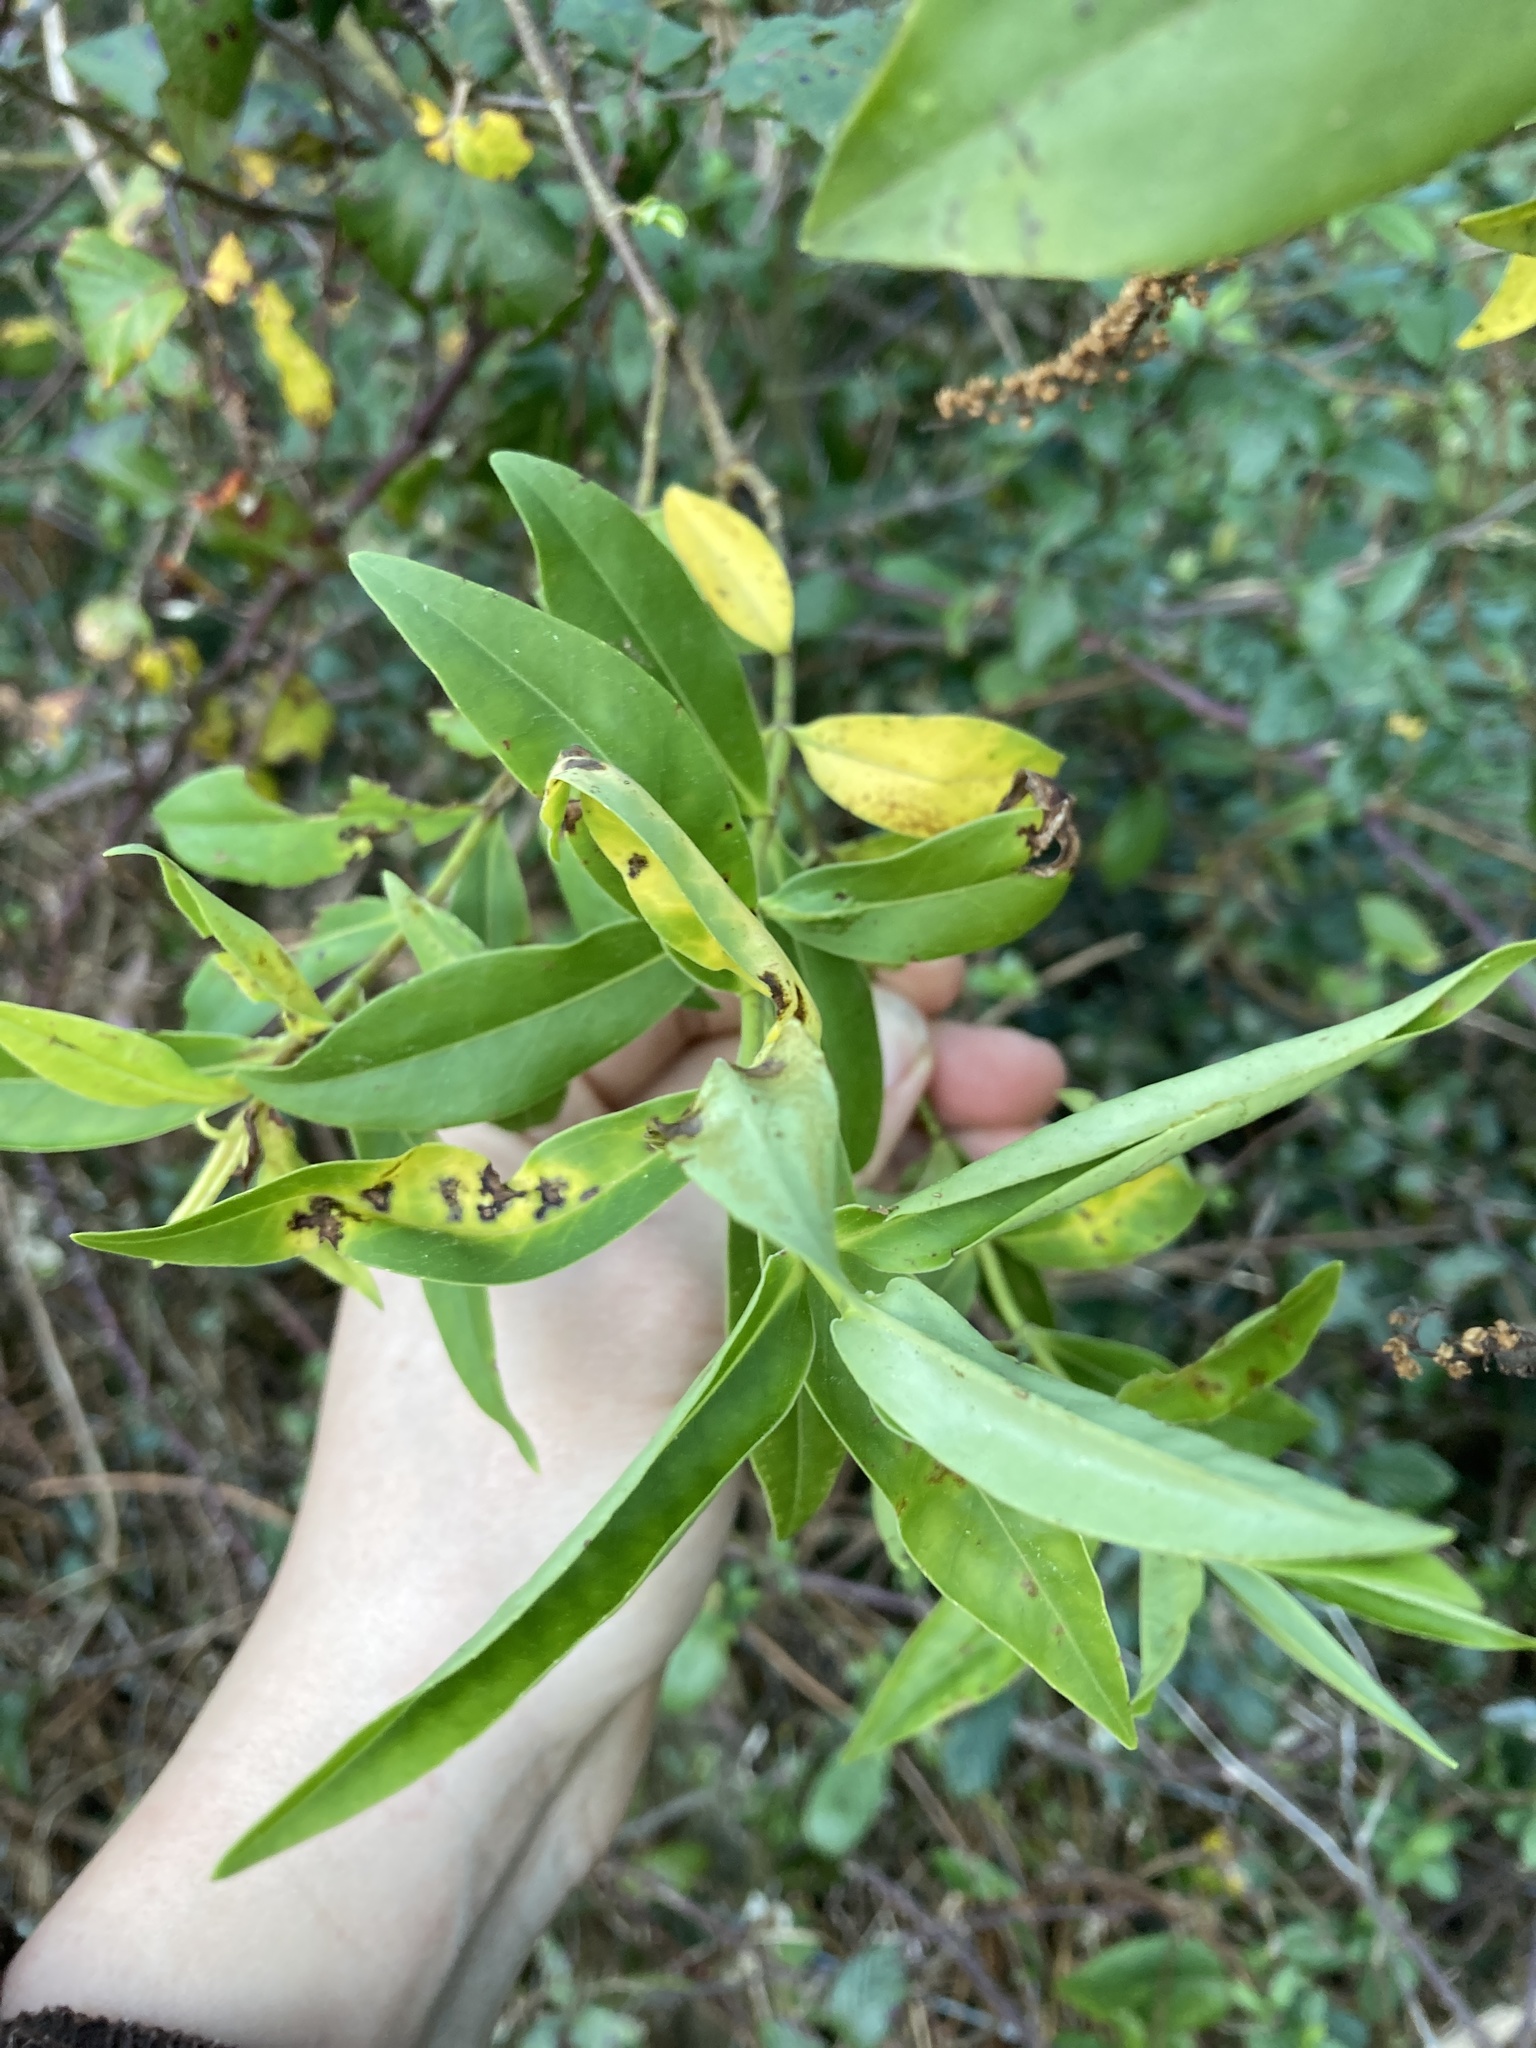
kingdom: Plantae
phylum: Tracheophyta
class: Magnoliopsida
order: Lamiales
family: Plantaginaceae
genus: Veronica
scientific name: Veronica stricta
